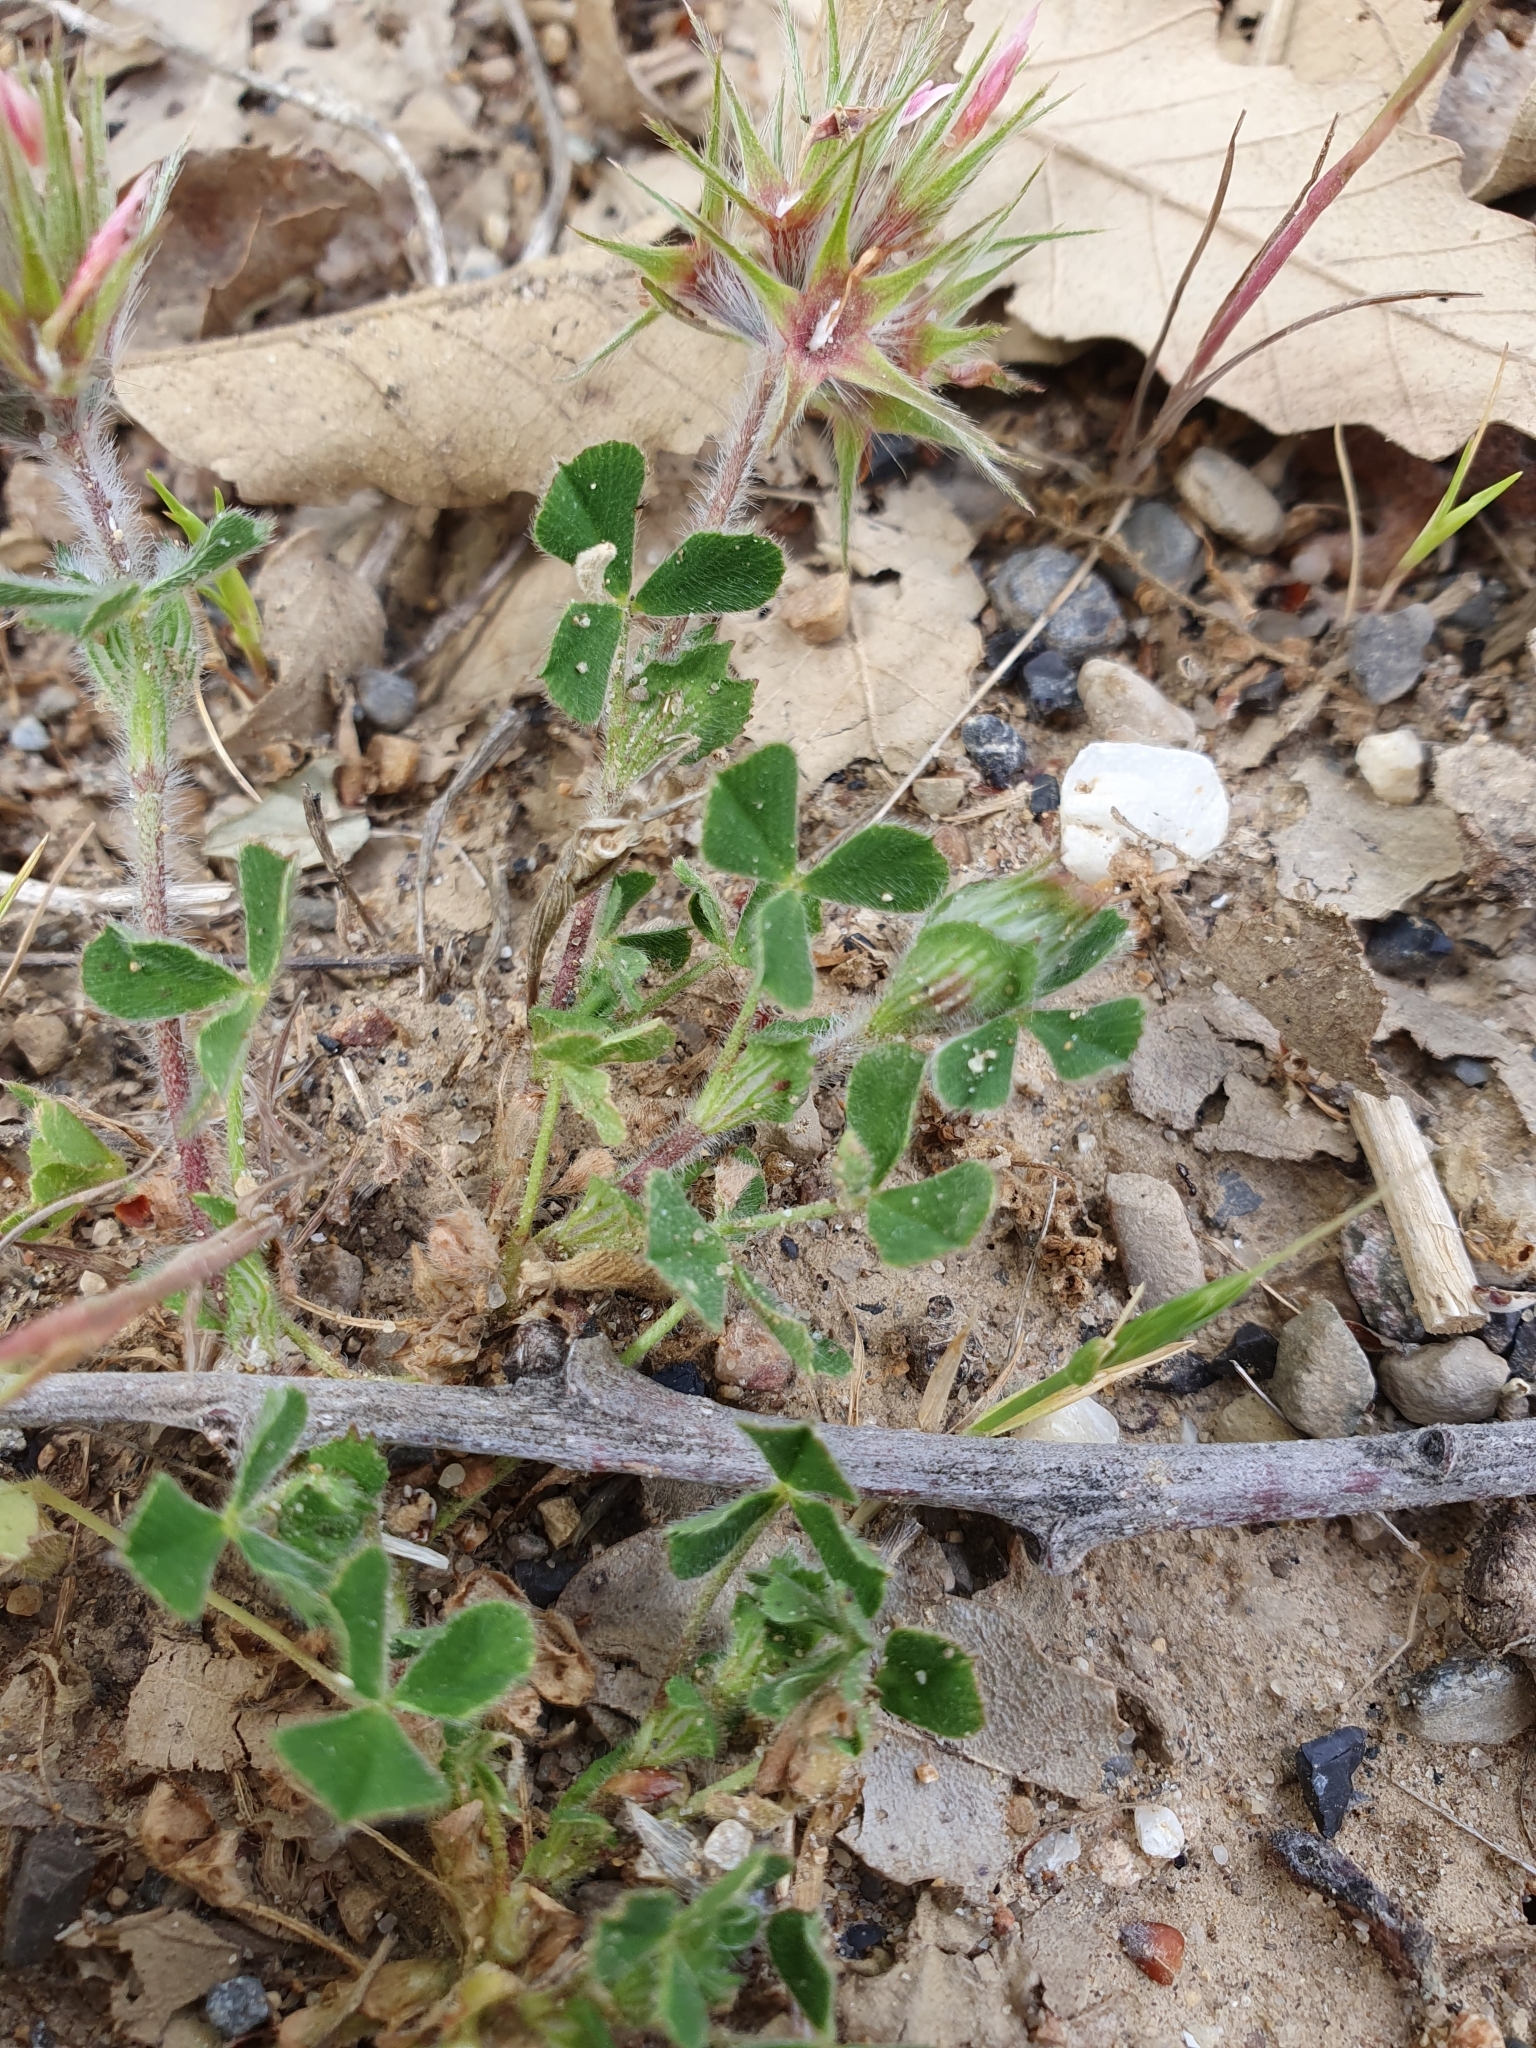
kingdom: Plantae
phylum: Tracheophyta
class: Magnoliopsida
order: Fabales
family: Fabaceae
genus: Trifolium
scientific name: Trifolium stellatum
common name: Starry clover
